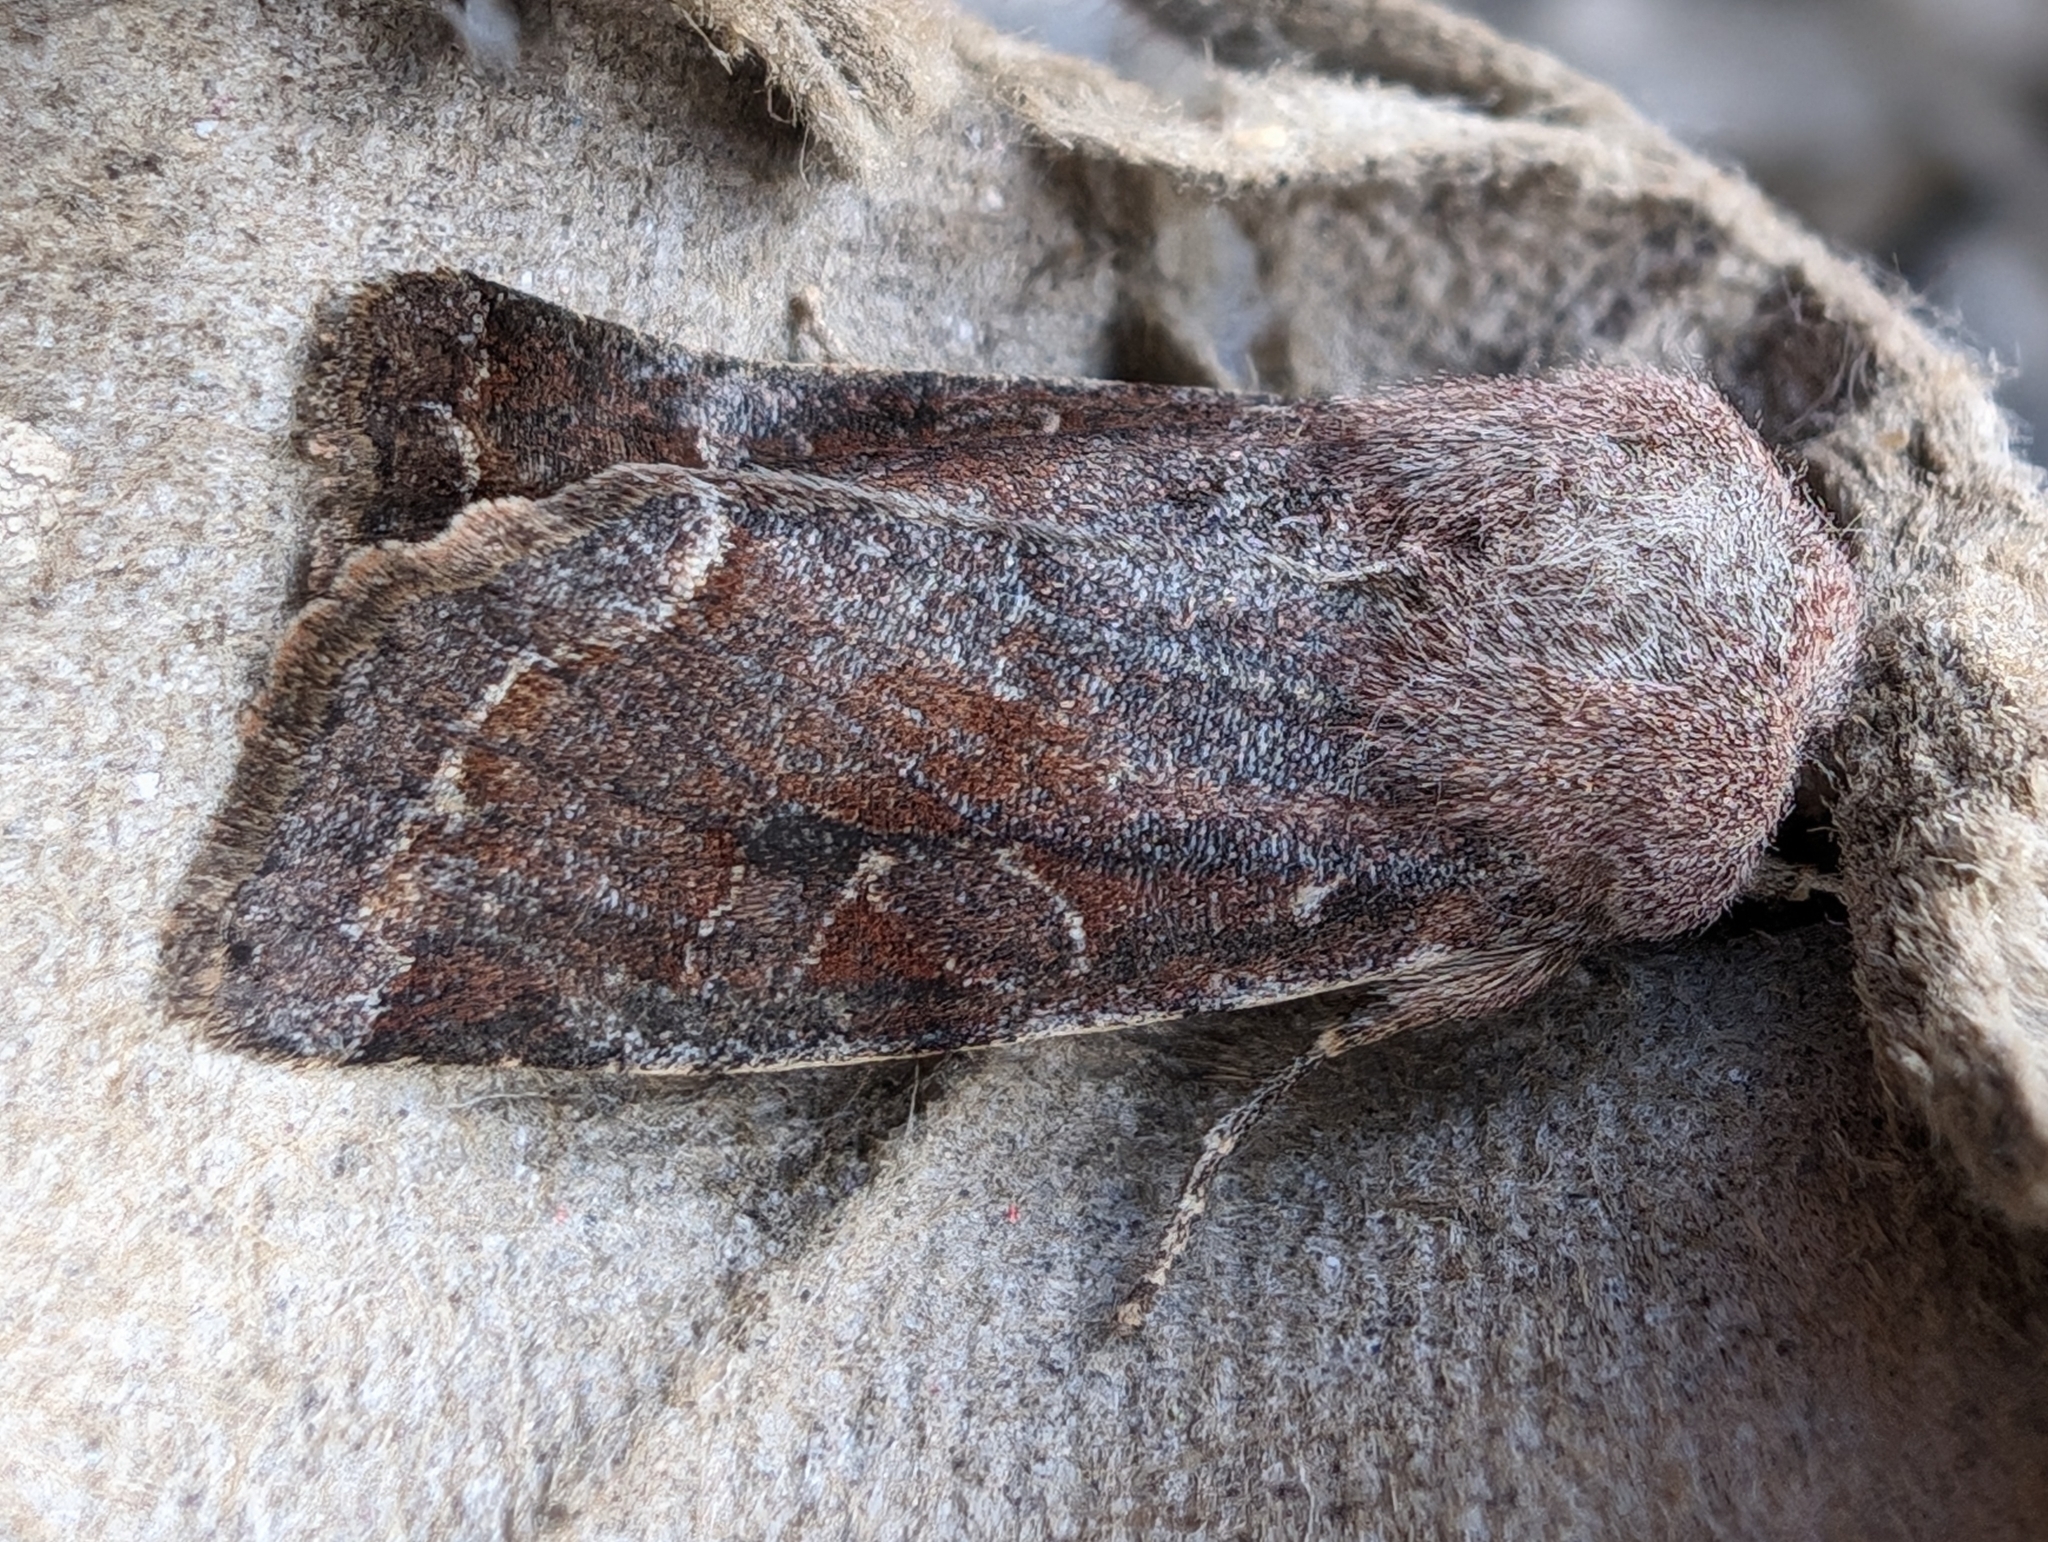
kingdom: Animalia
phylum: Arthropoda
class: Insecta
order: Lepidoptera
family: Noctuidae
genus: Orthosia
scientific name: Orthosia incerta
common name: Clouded drab
